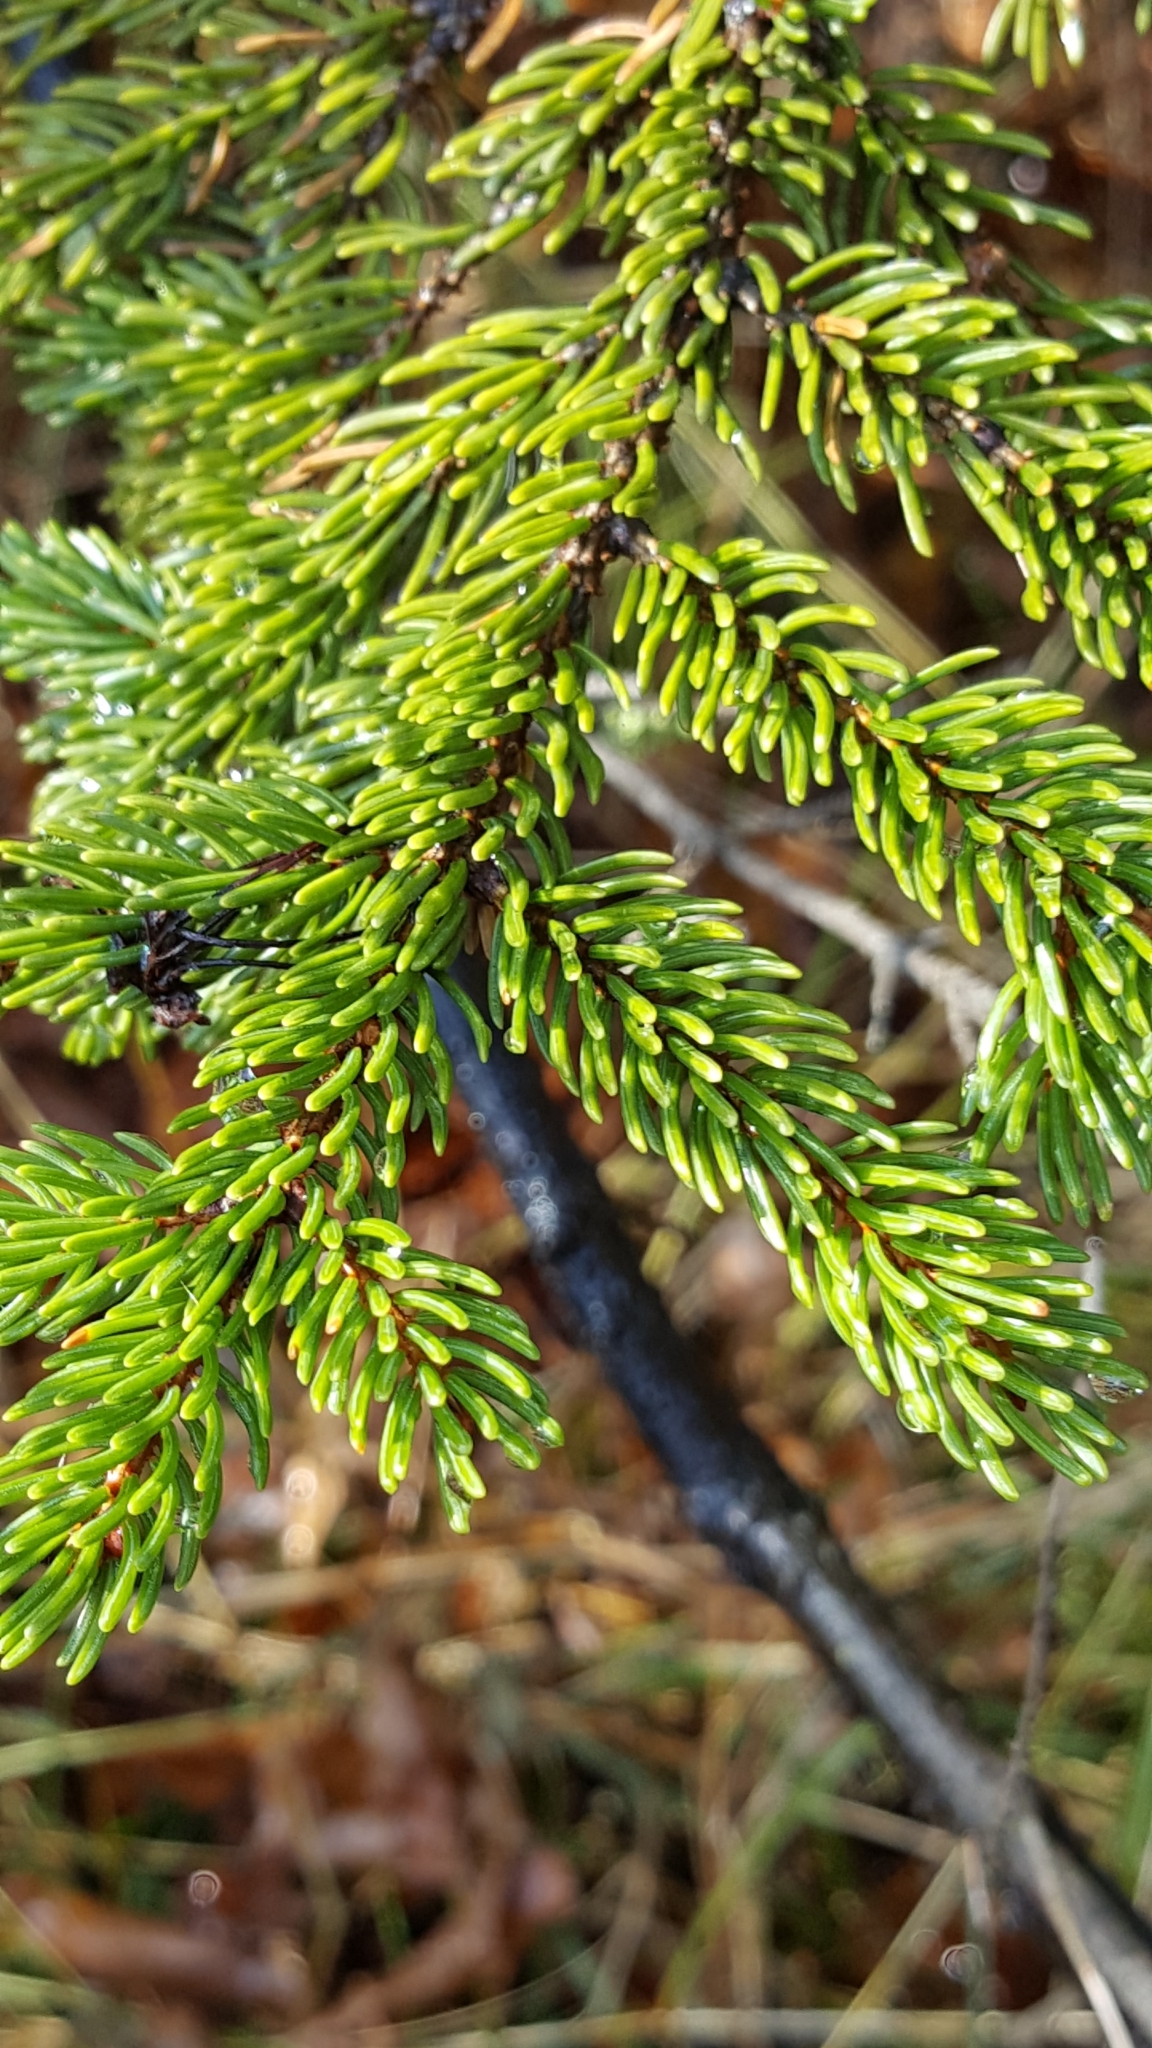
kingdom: Plantae
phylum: Tracheophyta
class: Pinopsida
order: Pinales
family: Pinaceae
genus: Picea
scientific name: Picea rubens
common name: Red spruce
